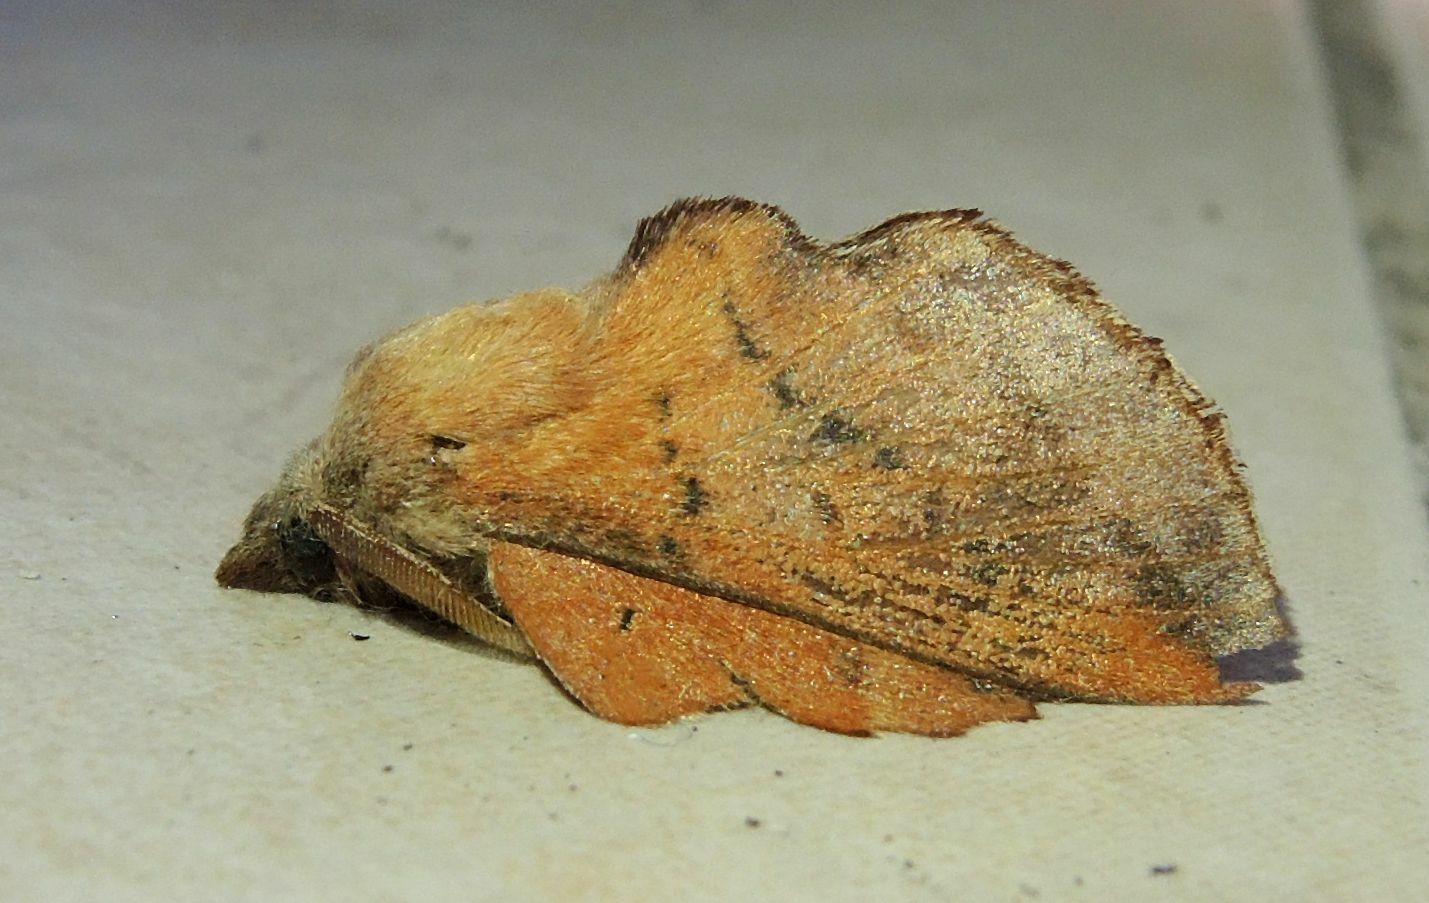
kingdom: Animalia
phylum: Arthropoda
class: Insecta
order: Lepidoptera
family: Lasiocampidae
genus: Phyllodesma
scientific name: Phyllodesma tremulifolia
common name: Aspen lappet
